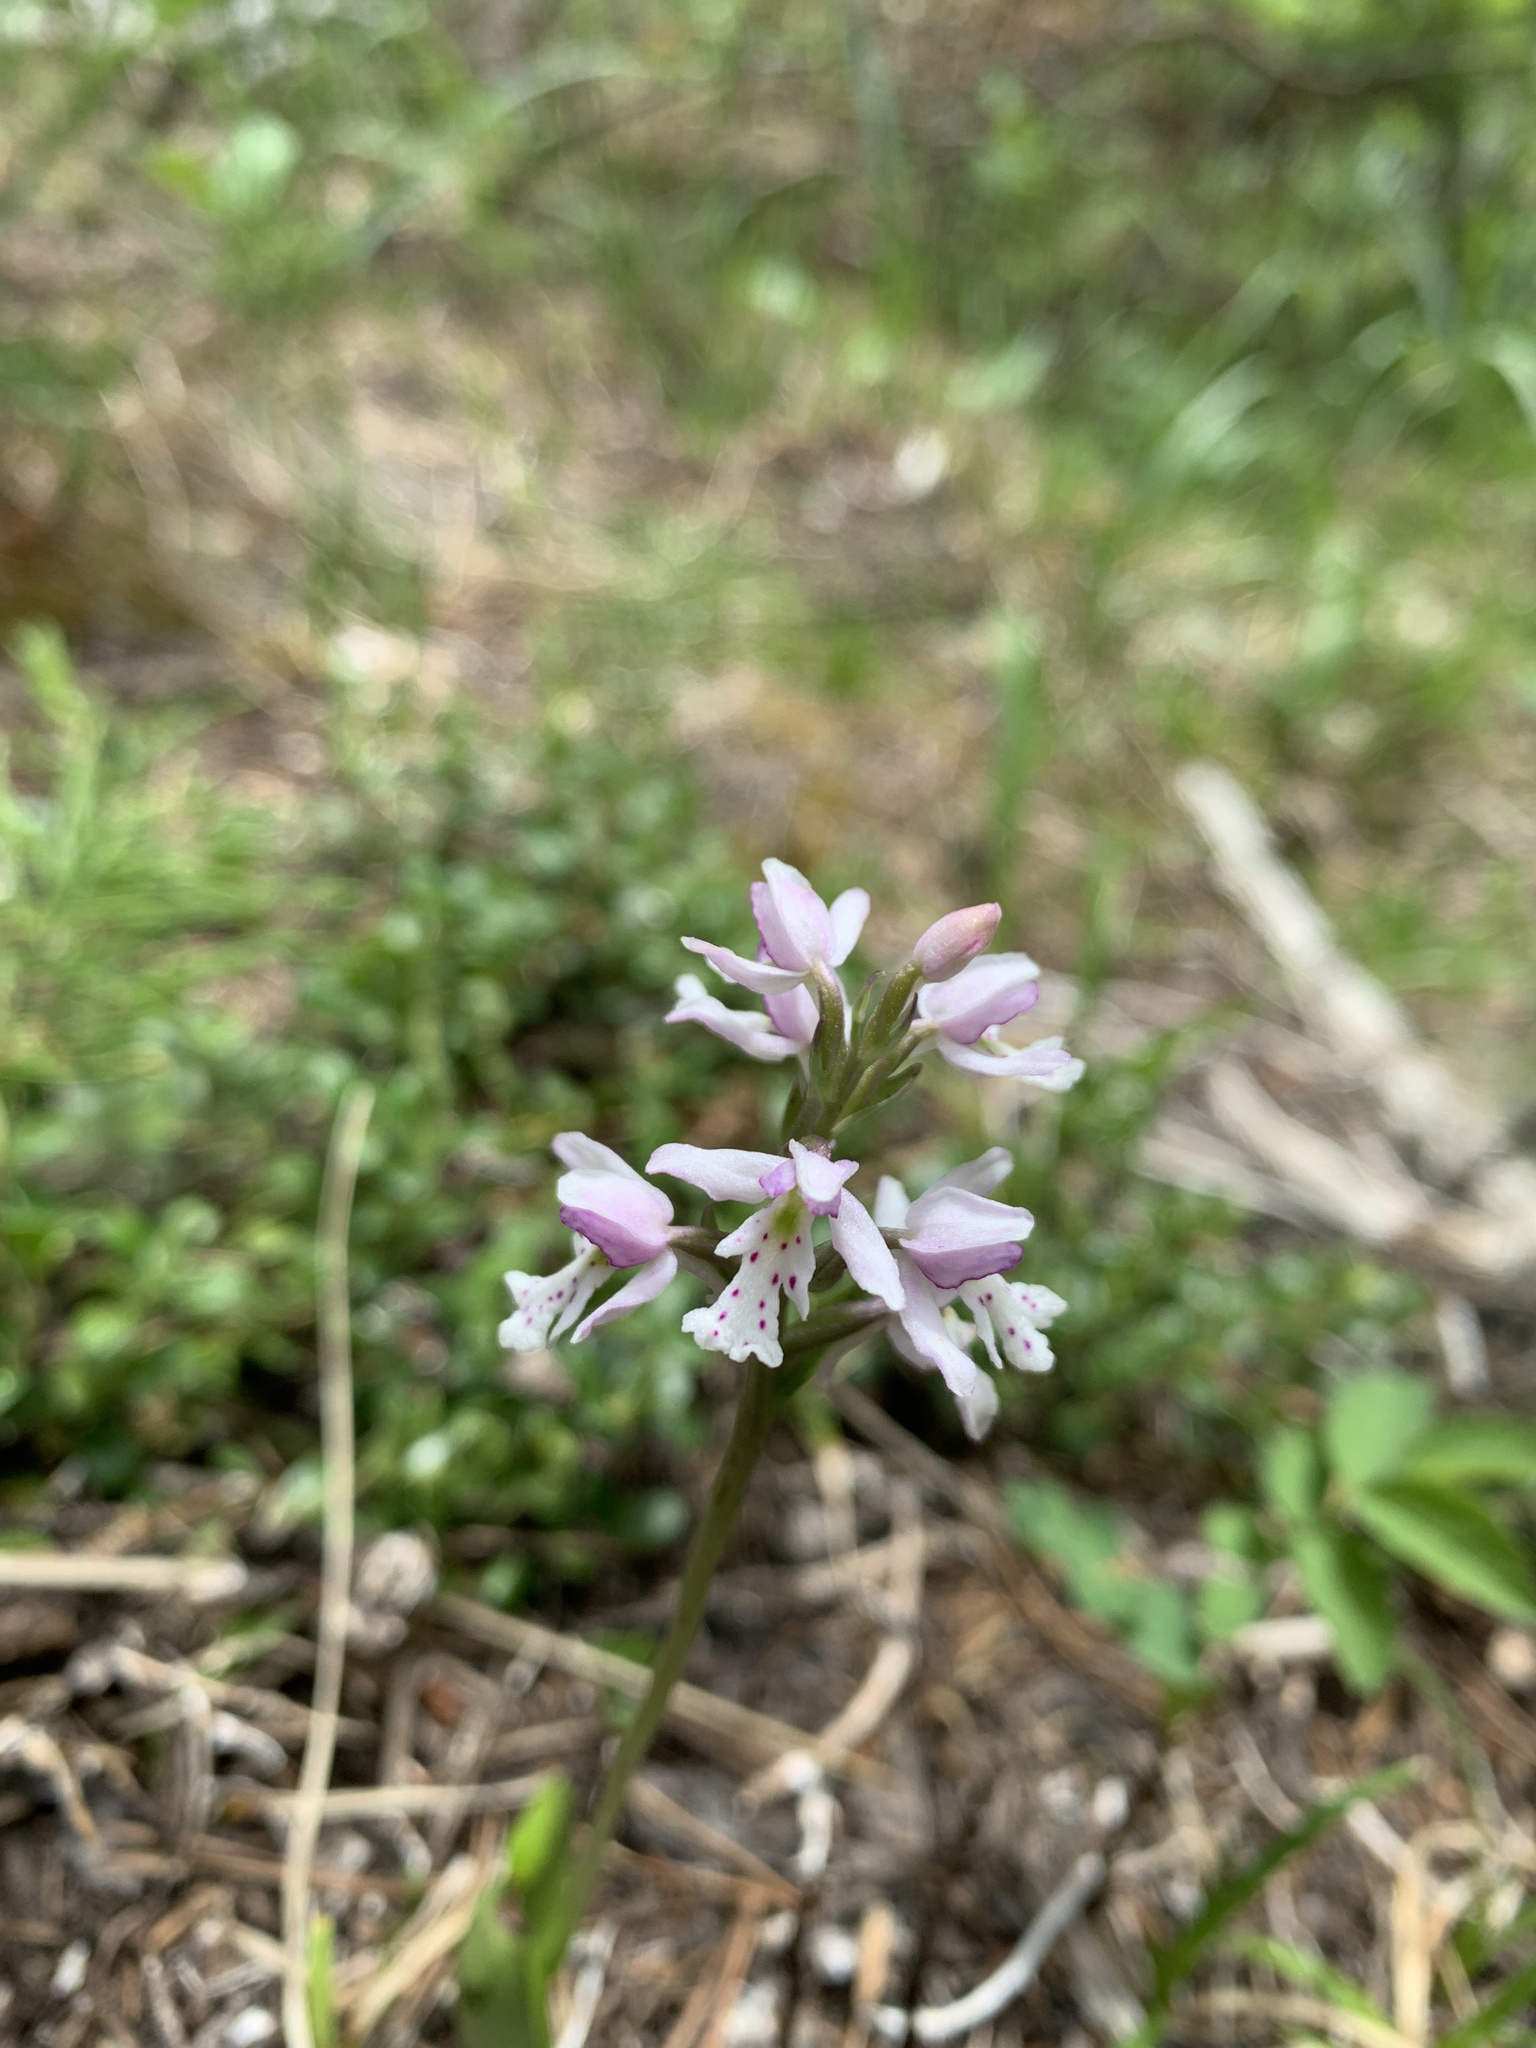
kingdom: Plantae
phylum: Tracheophyta
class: Liliopsida
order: Asparagales
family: Orchidaceae
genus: Galearis
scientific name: Galearis rotundifolia
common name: One-leaved orchis
